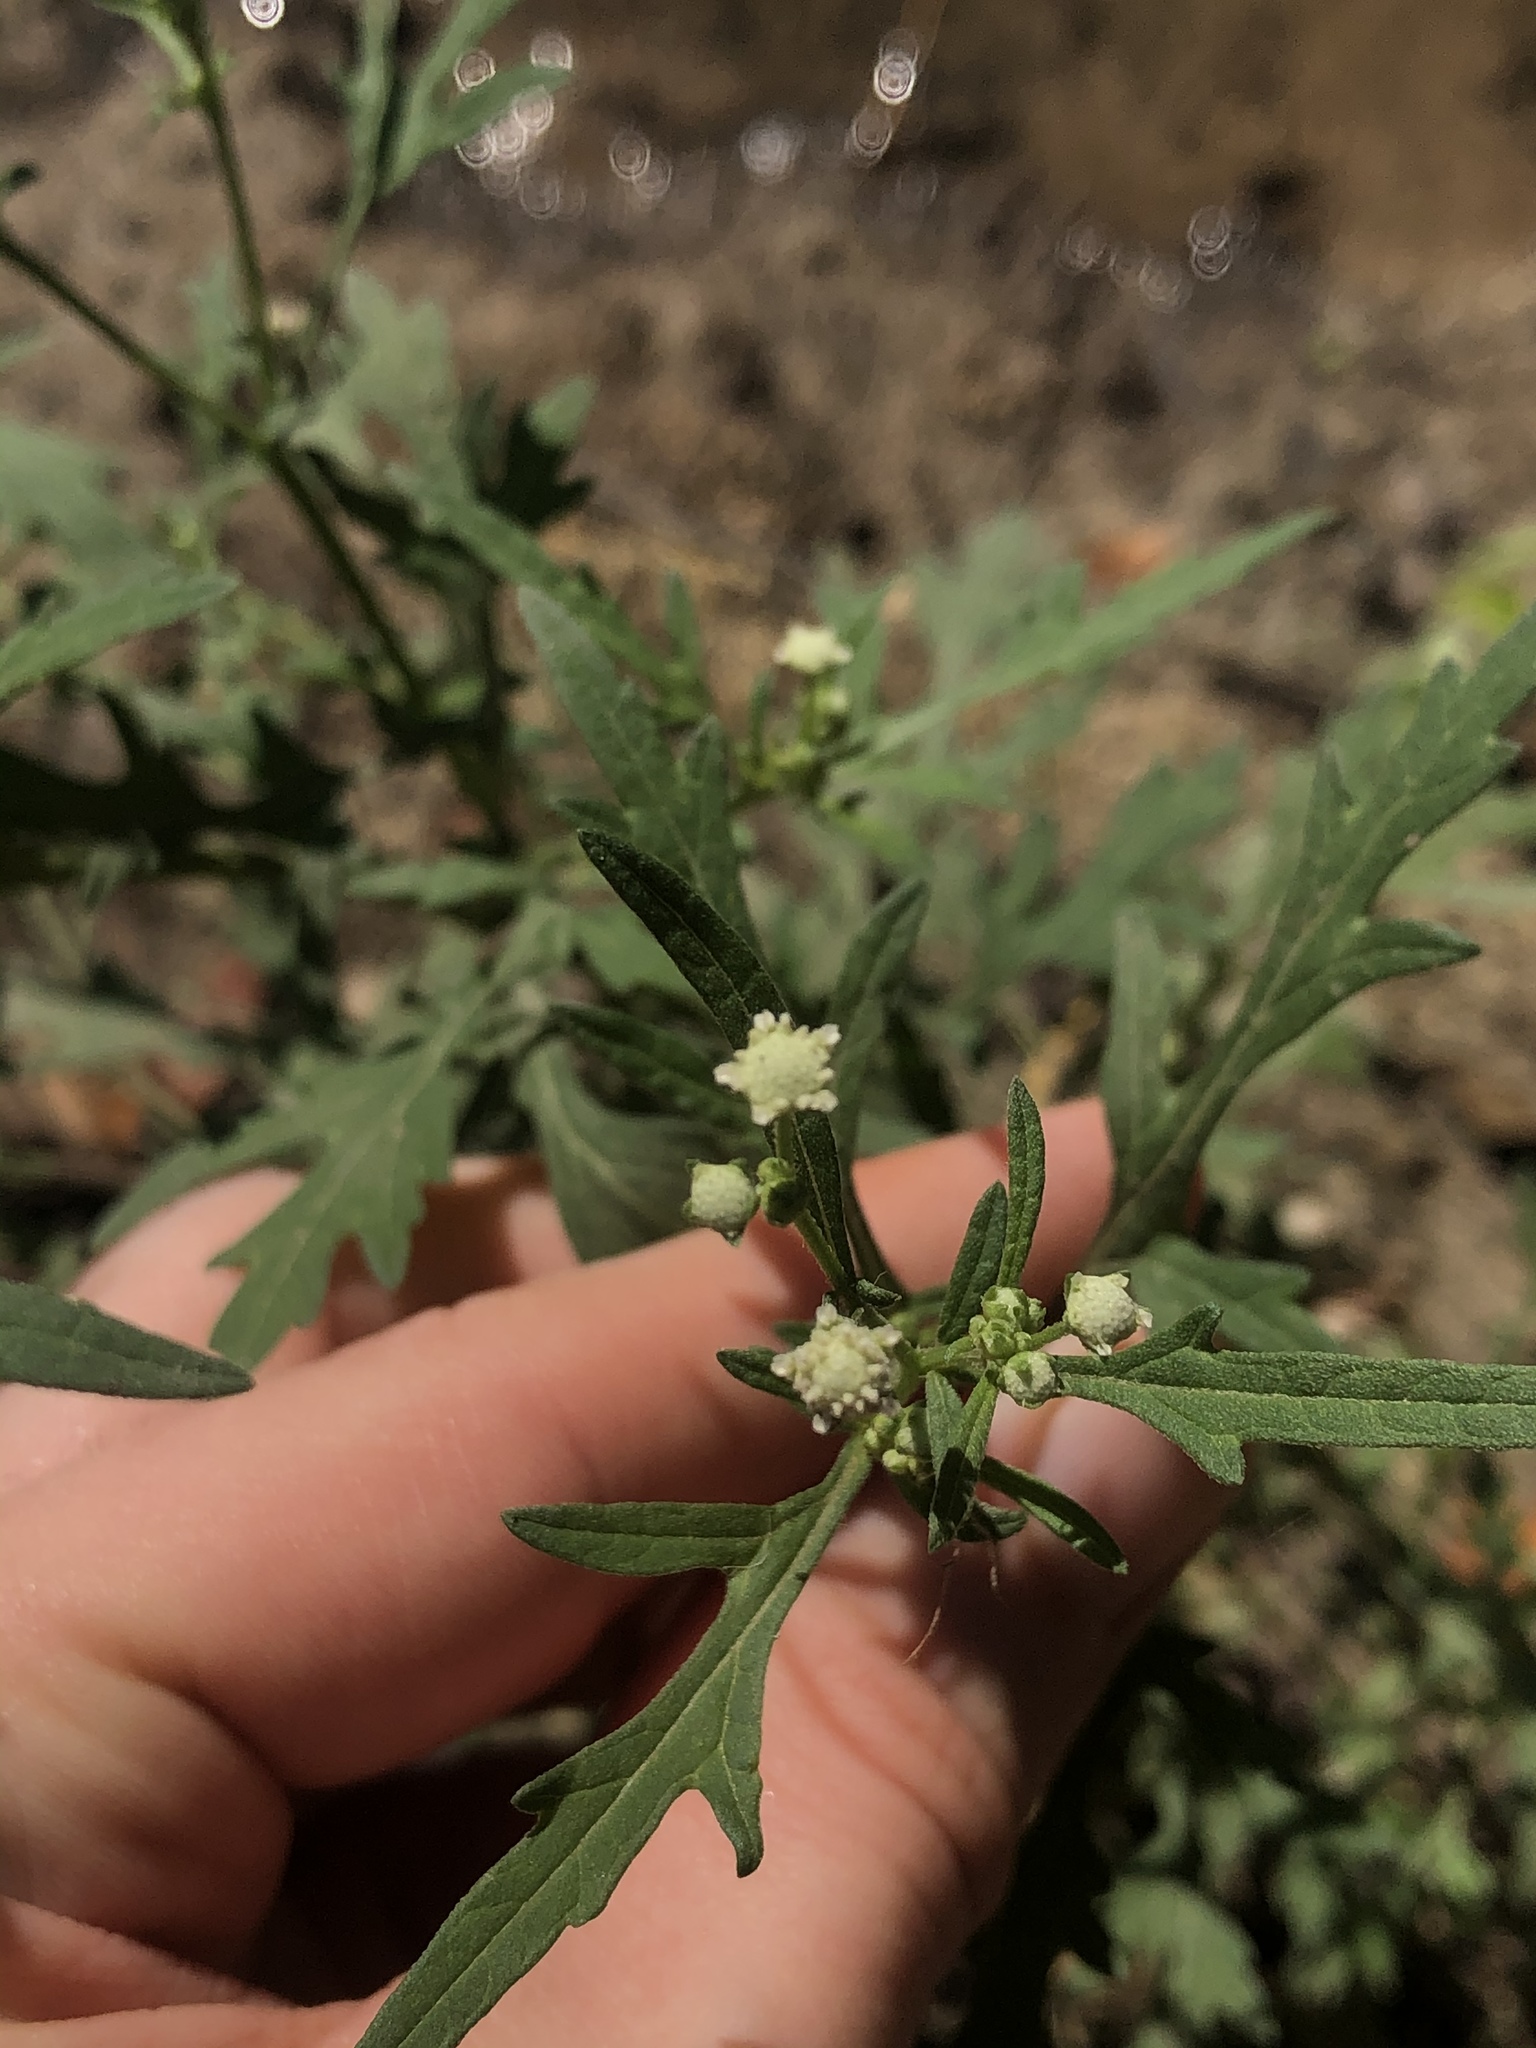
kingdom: Plantae
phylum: Tracheophyta
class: Magnoliopsida
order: Asterales
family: Asteraceae
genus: Parthenium
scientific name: Parthenium hysterophorus
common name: Santa maria feverfew
